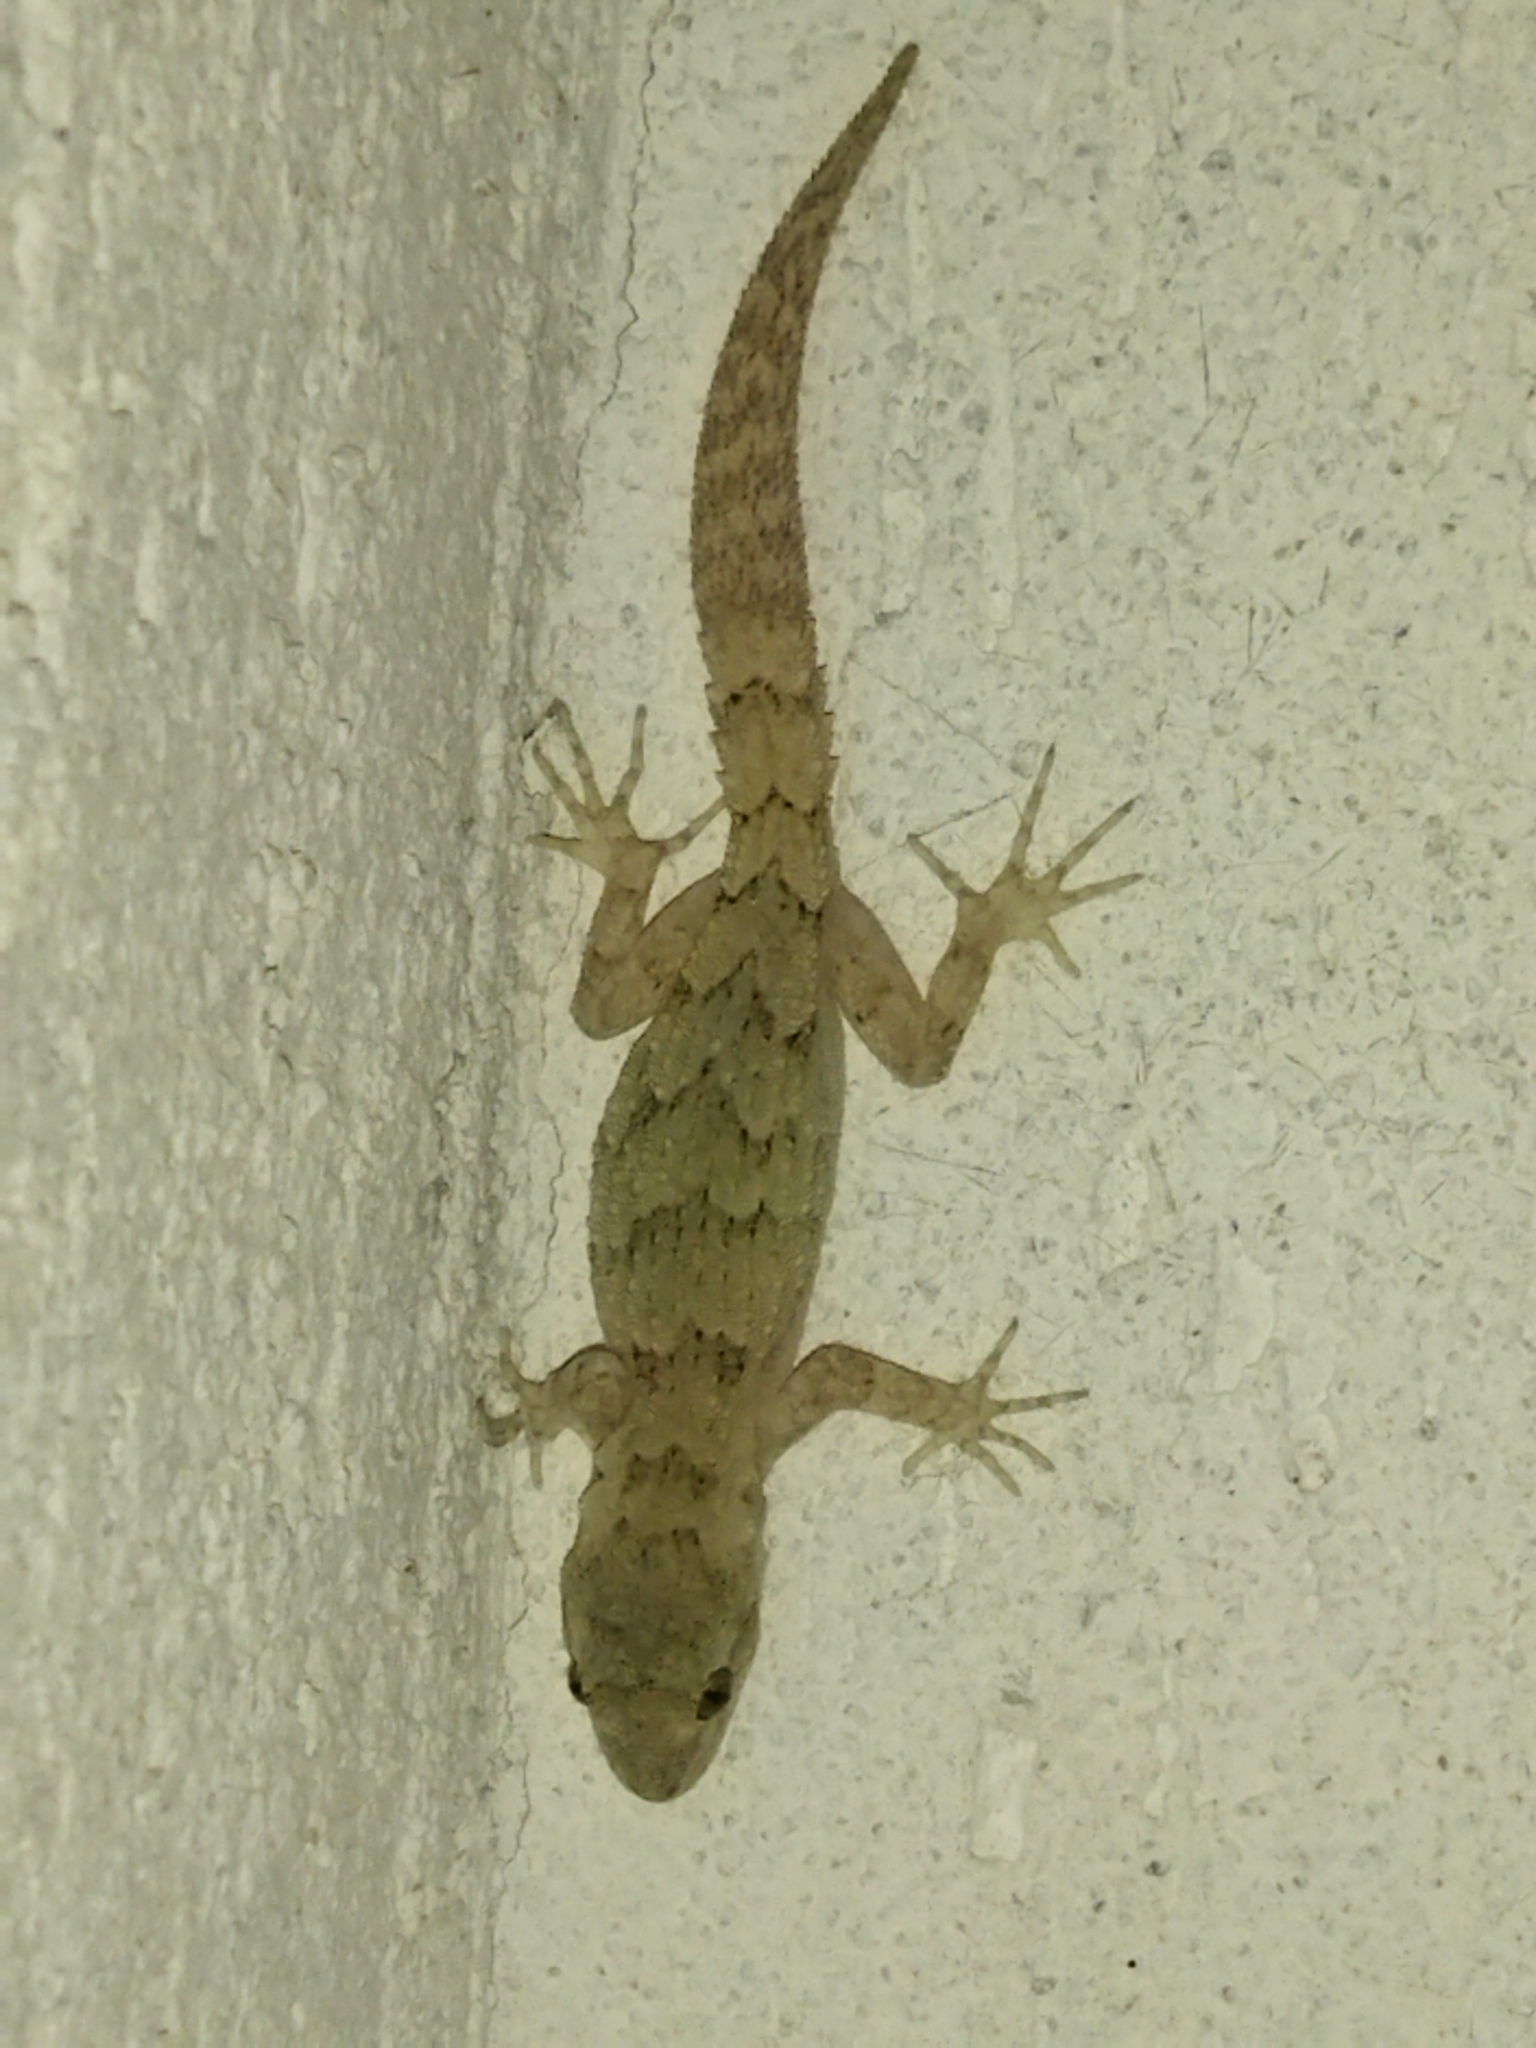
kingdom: Animalia
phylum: Chordata
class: Squamata
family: Gekkonidae
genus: Mediodactylus
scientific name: Mediodactylus kotschyi
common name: Kotschy's gecko
